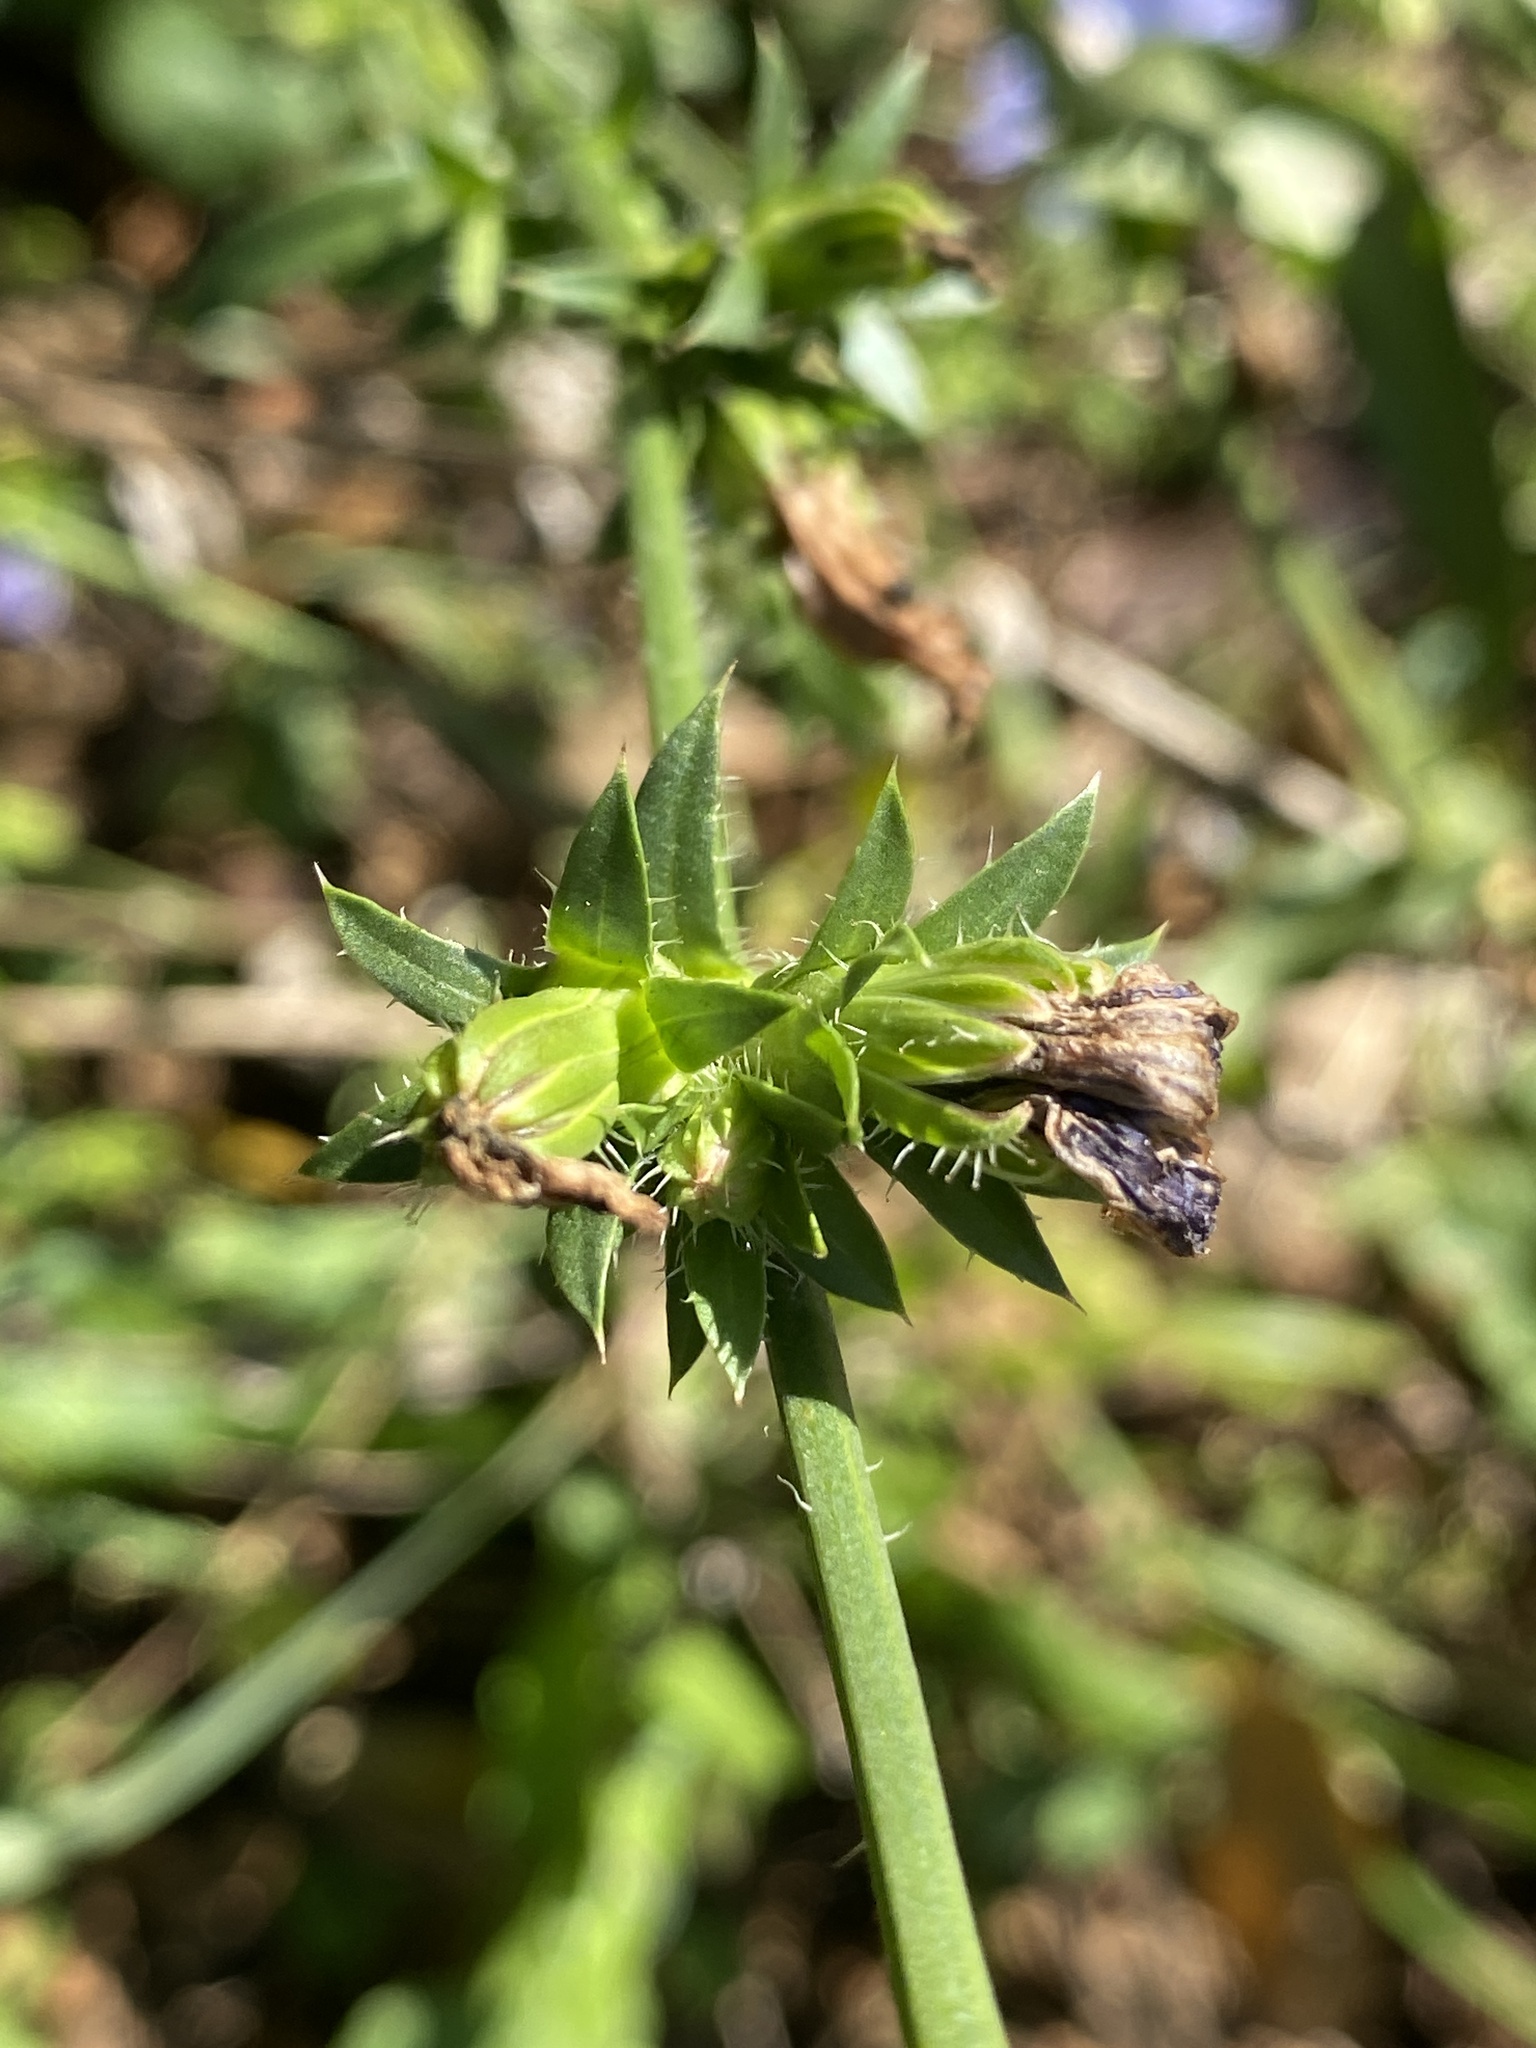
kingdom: Plantae
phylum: Tracheophyta
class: Magnoliopsida
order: Asterales
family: Asteraceae
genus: Cichorium
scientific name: Cichorium intybus
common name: Chicory
